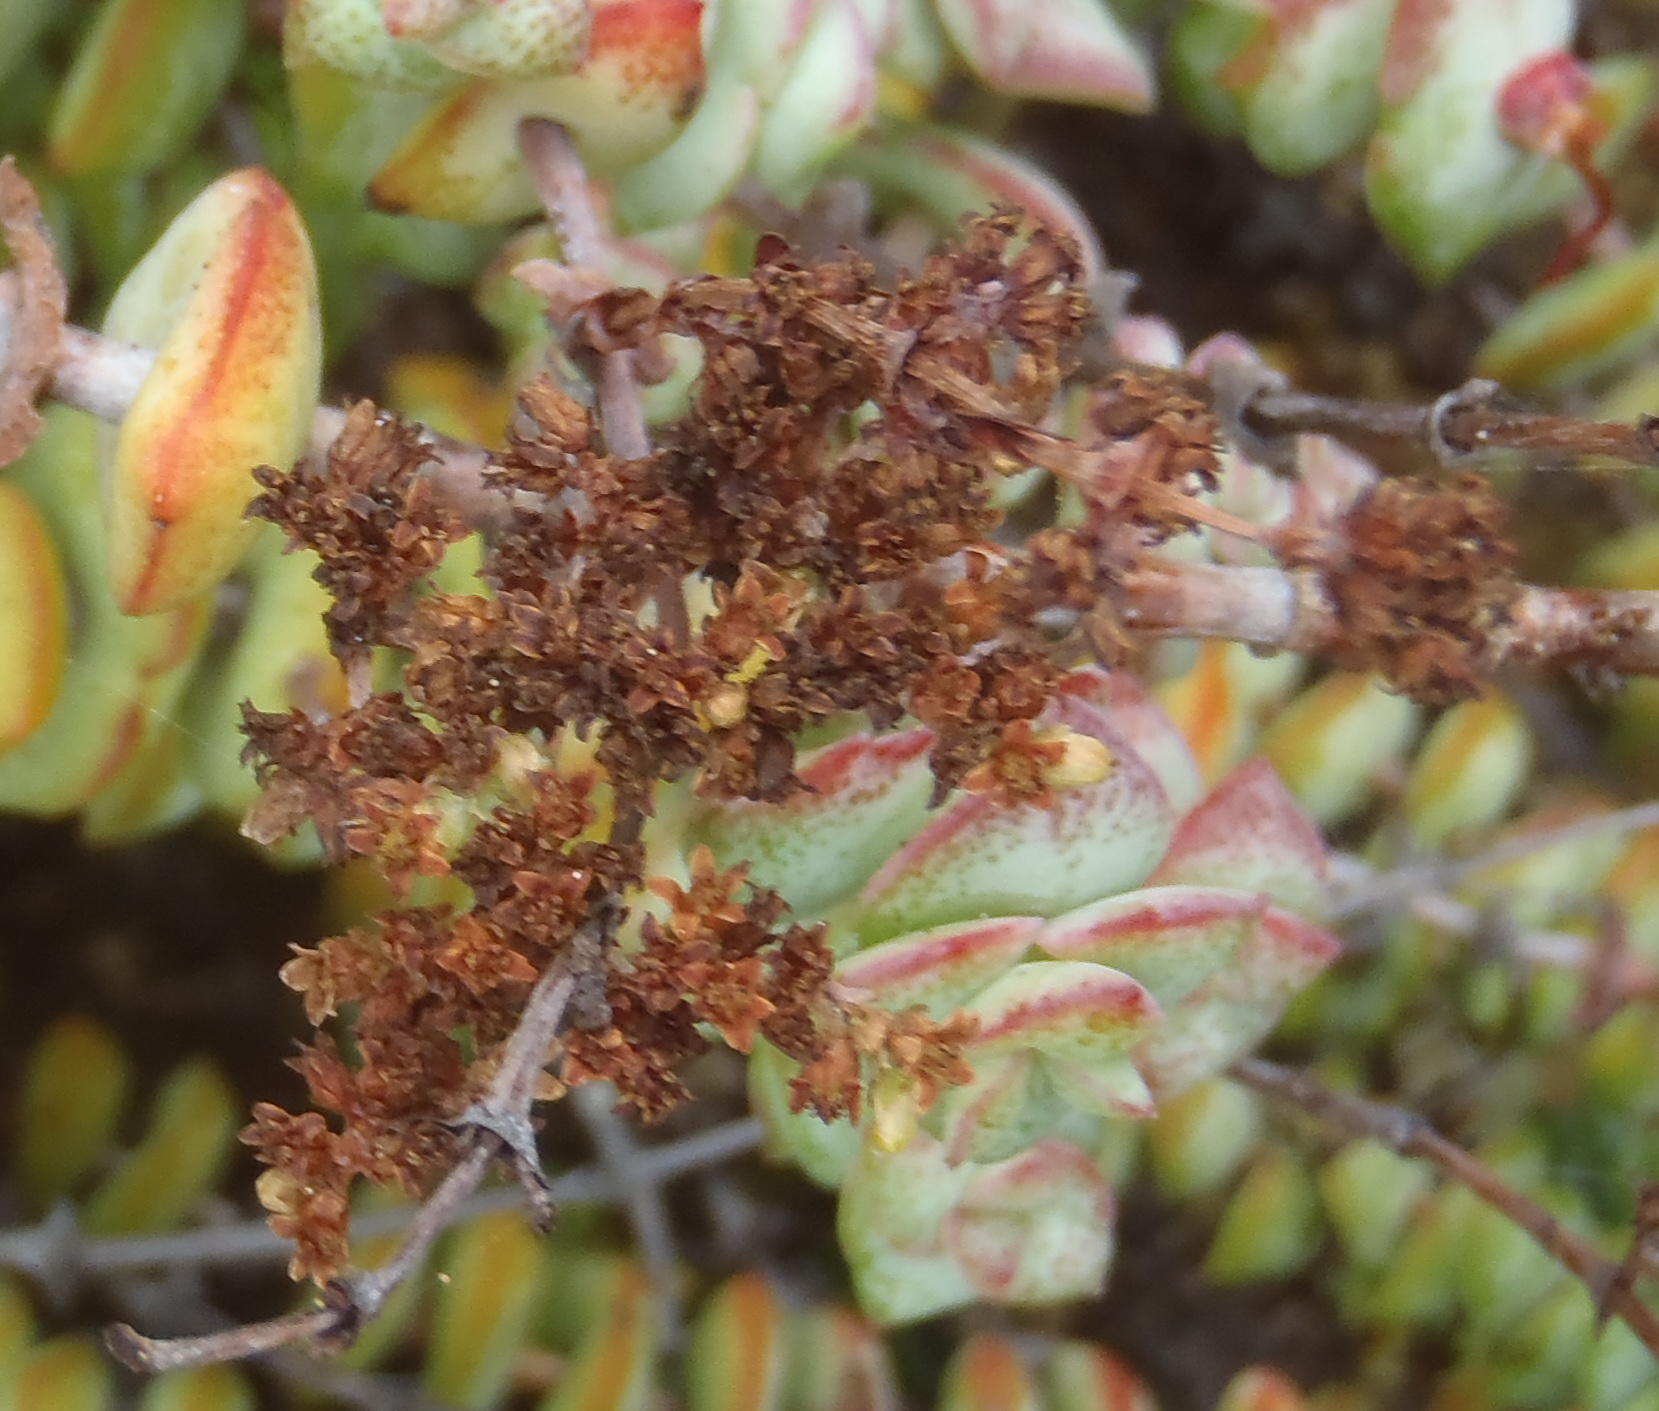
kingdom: Plantae
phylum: Tracheophyta
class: Magnoliopsida
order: Saxifragales
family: Crassulaceae
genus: Crassula
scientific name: Crassula perforata
